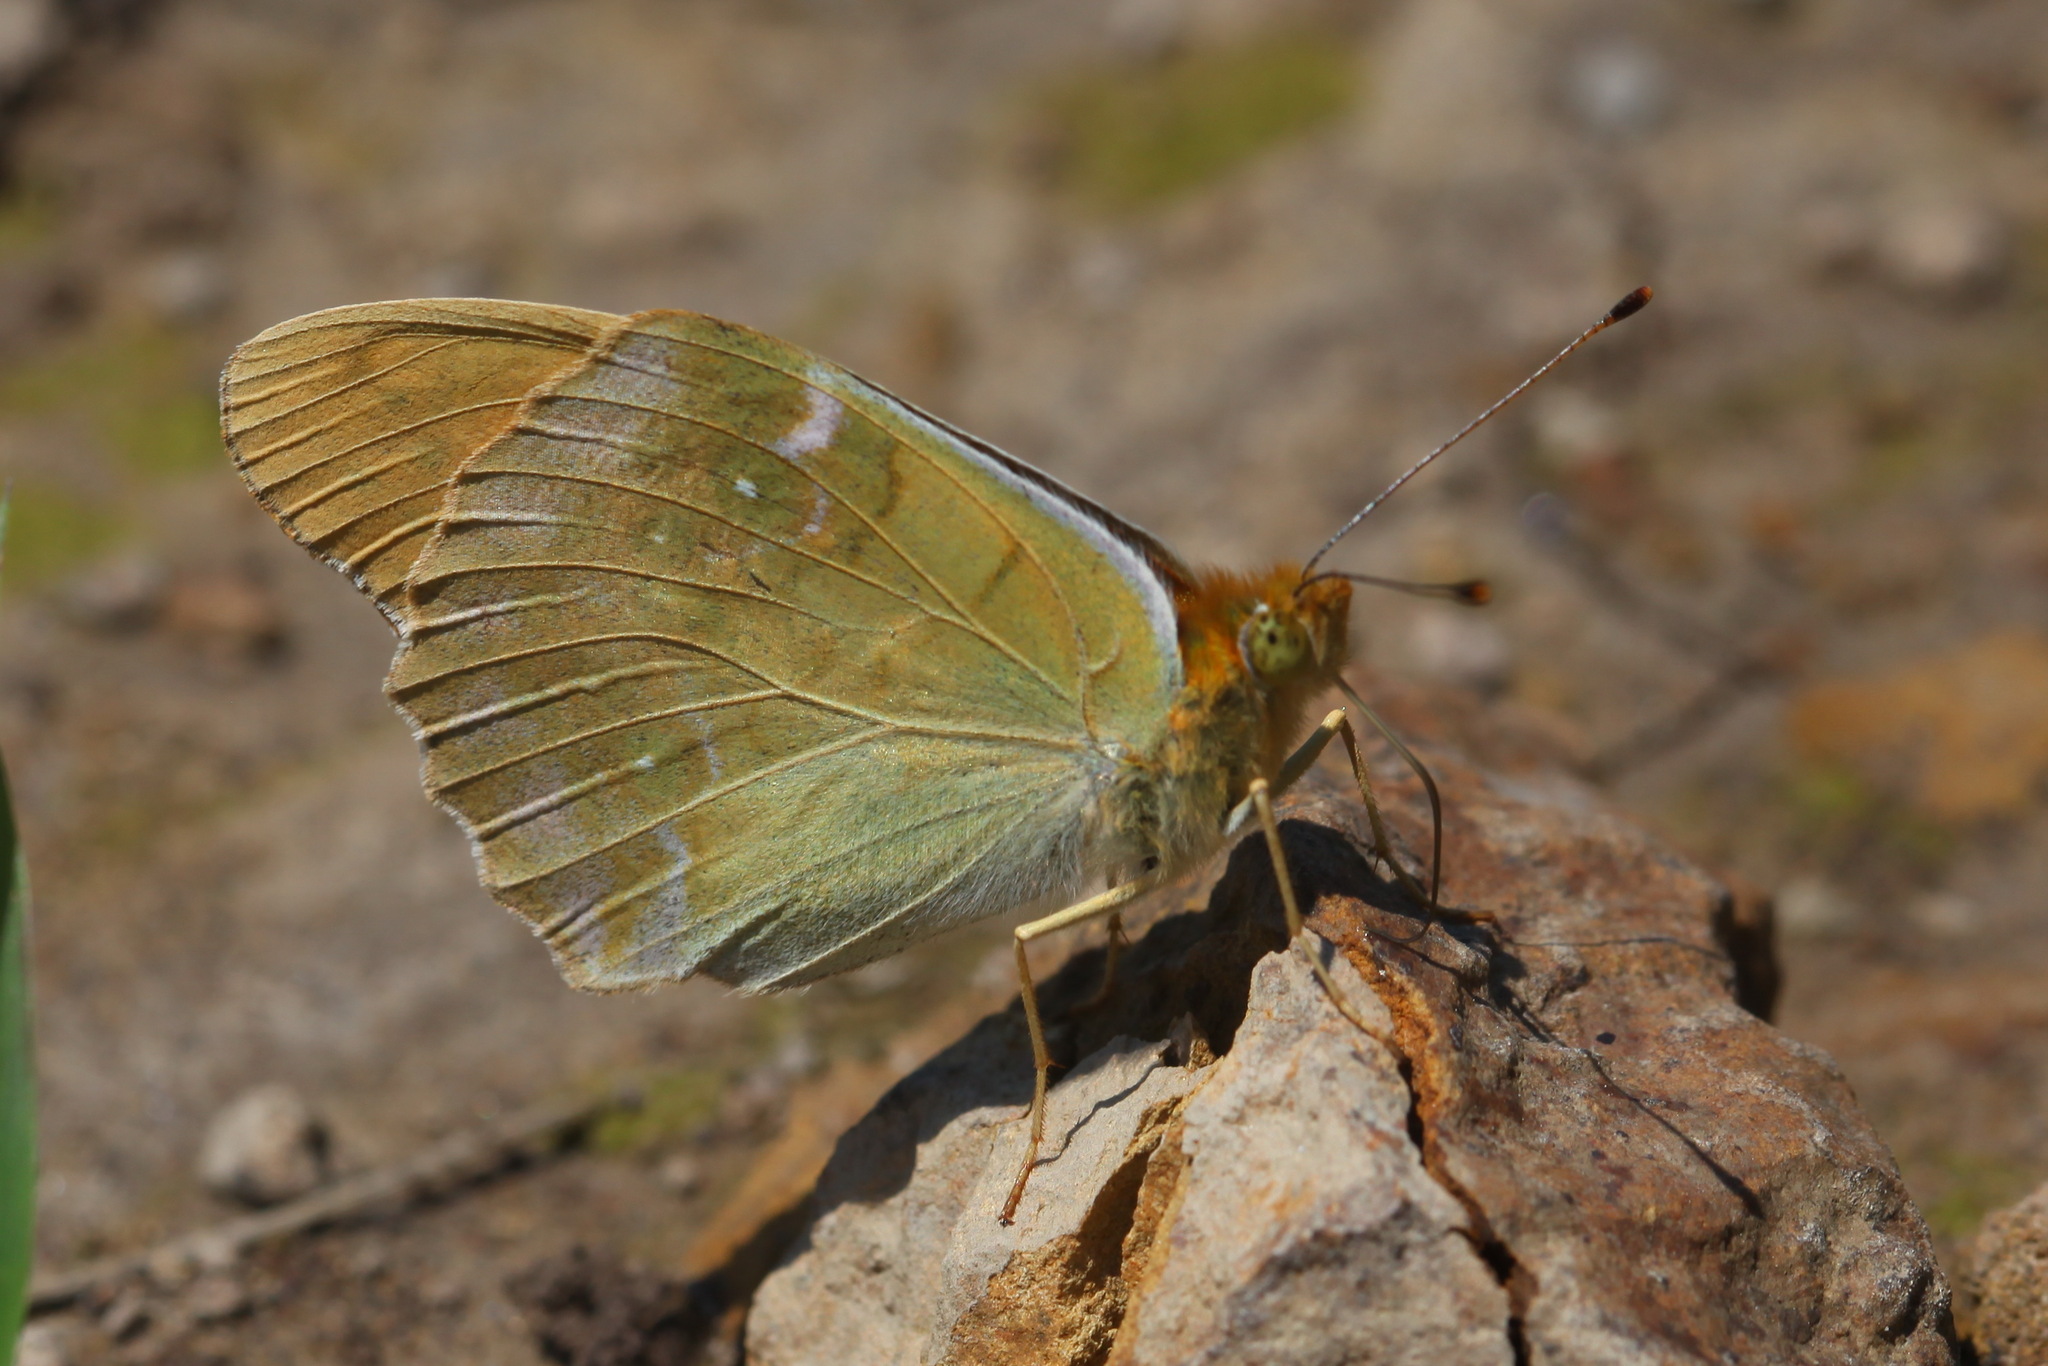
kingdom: Animalia
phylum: Arthropoda
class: Insecta
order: Lepidoptera
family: Nymphalidae
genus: Argynnis
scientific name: Argynnis anadyomene
